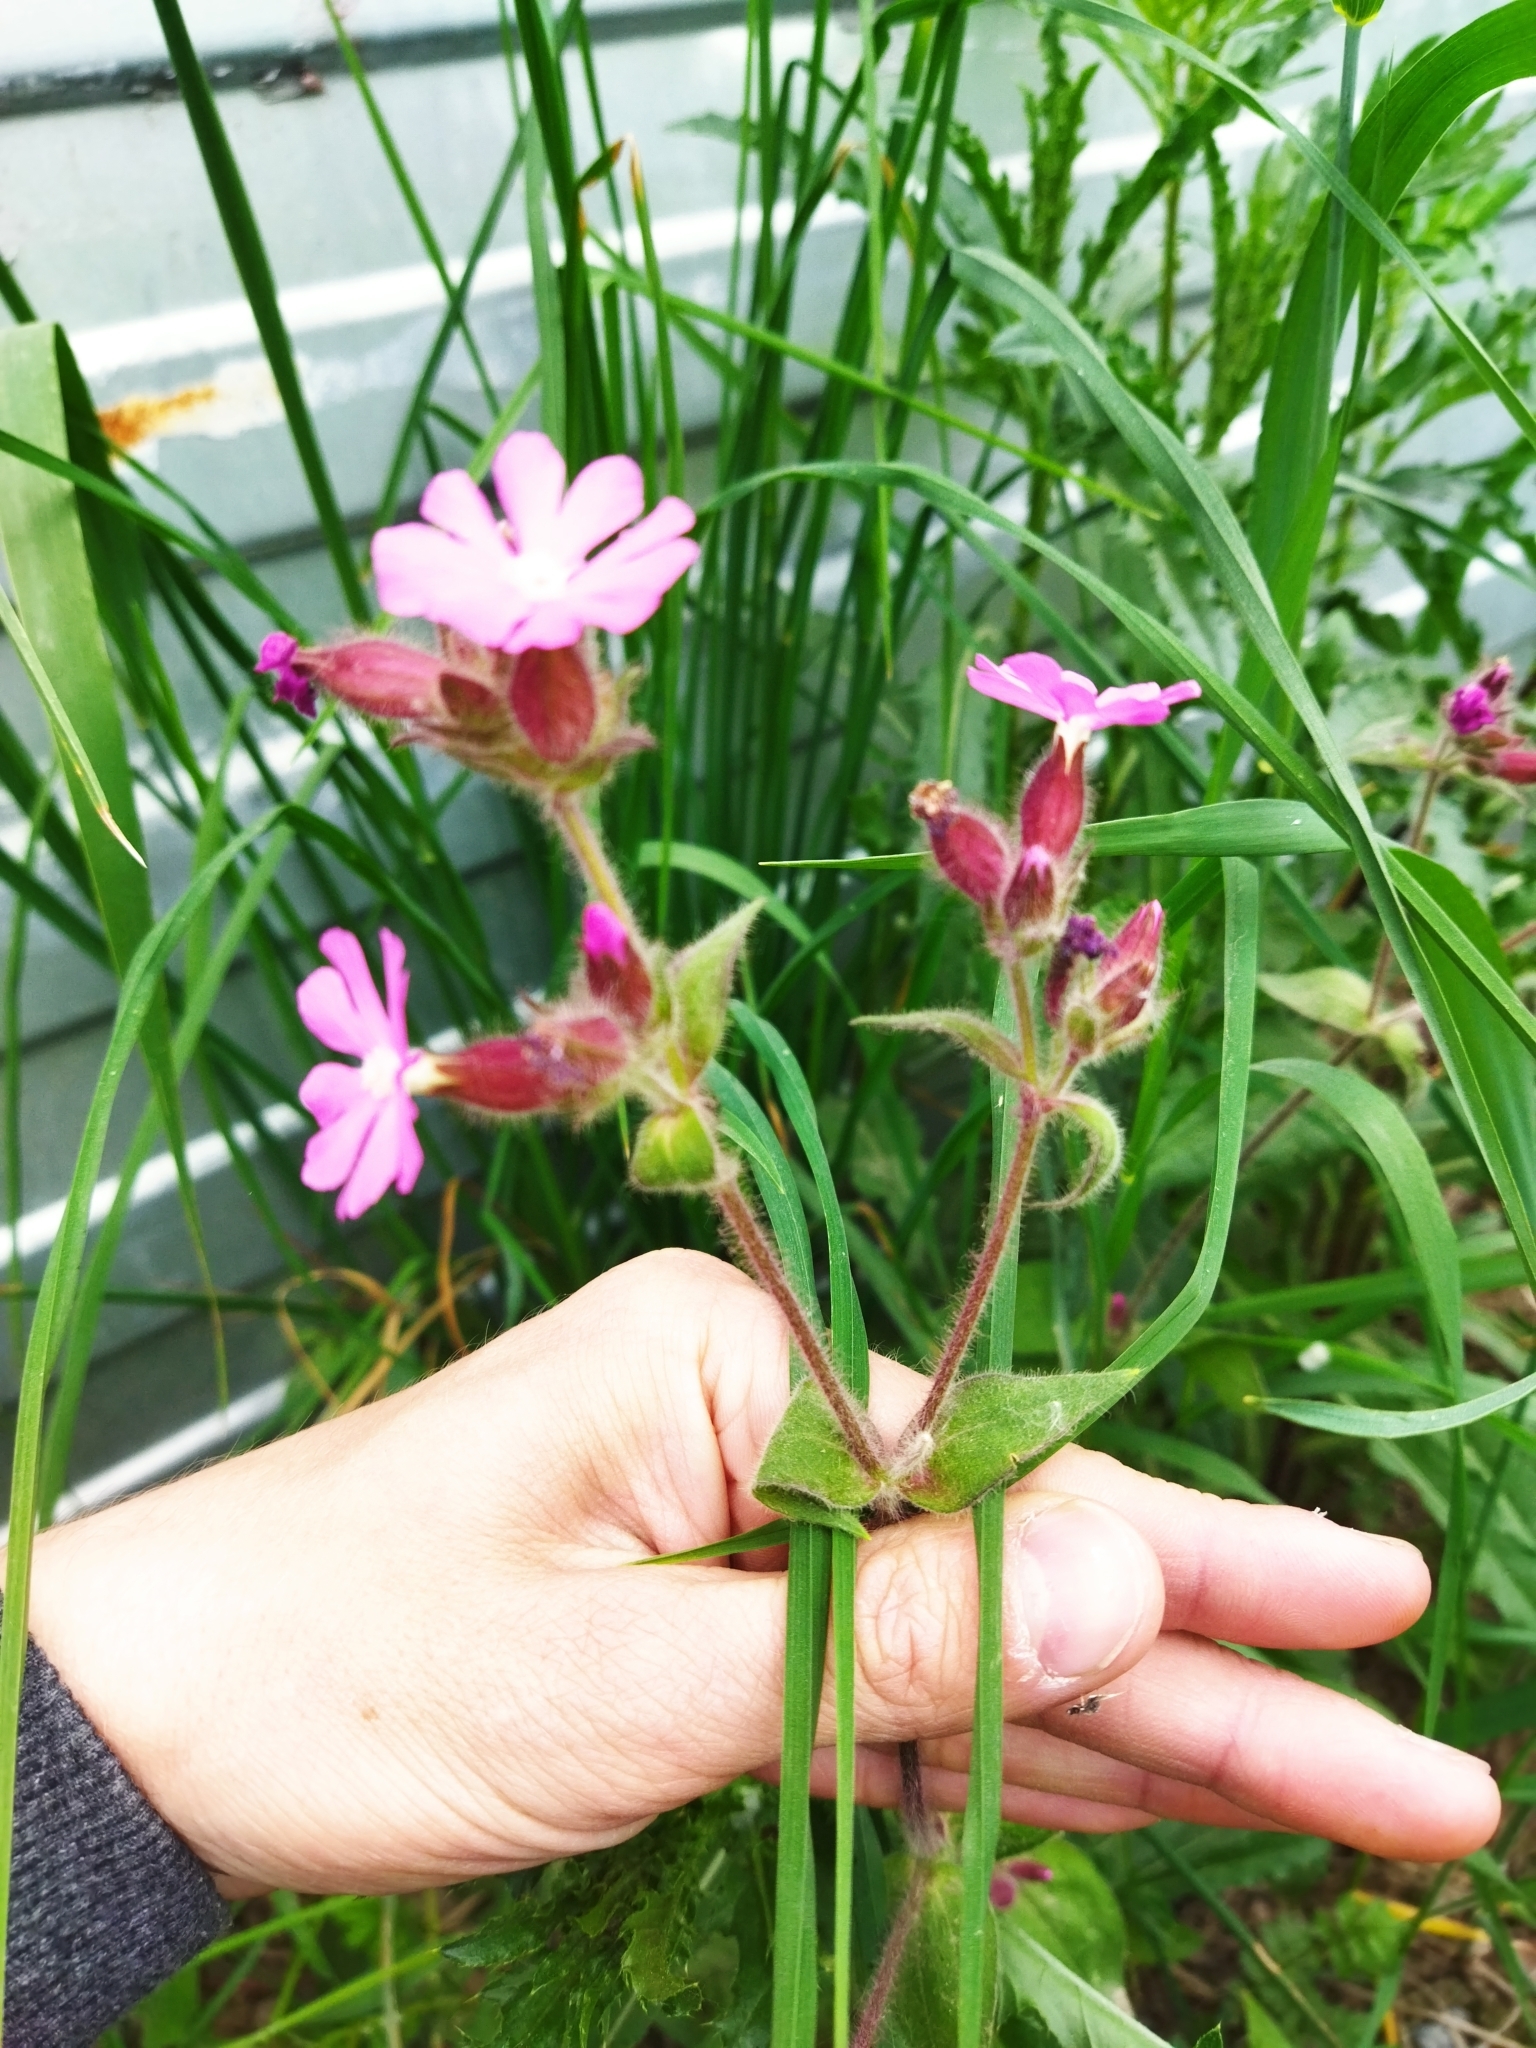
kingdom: Plantae
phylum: Tracheophyta
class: Magnoliopsida
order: Caryophyllales
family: Caryophyllaceae
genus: Silene
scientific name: Silene dioica
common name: Red campion
